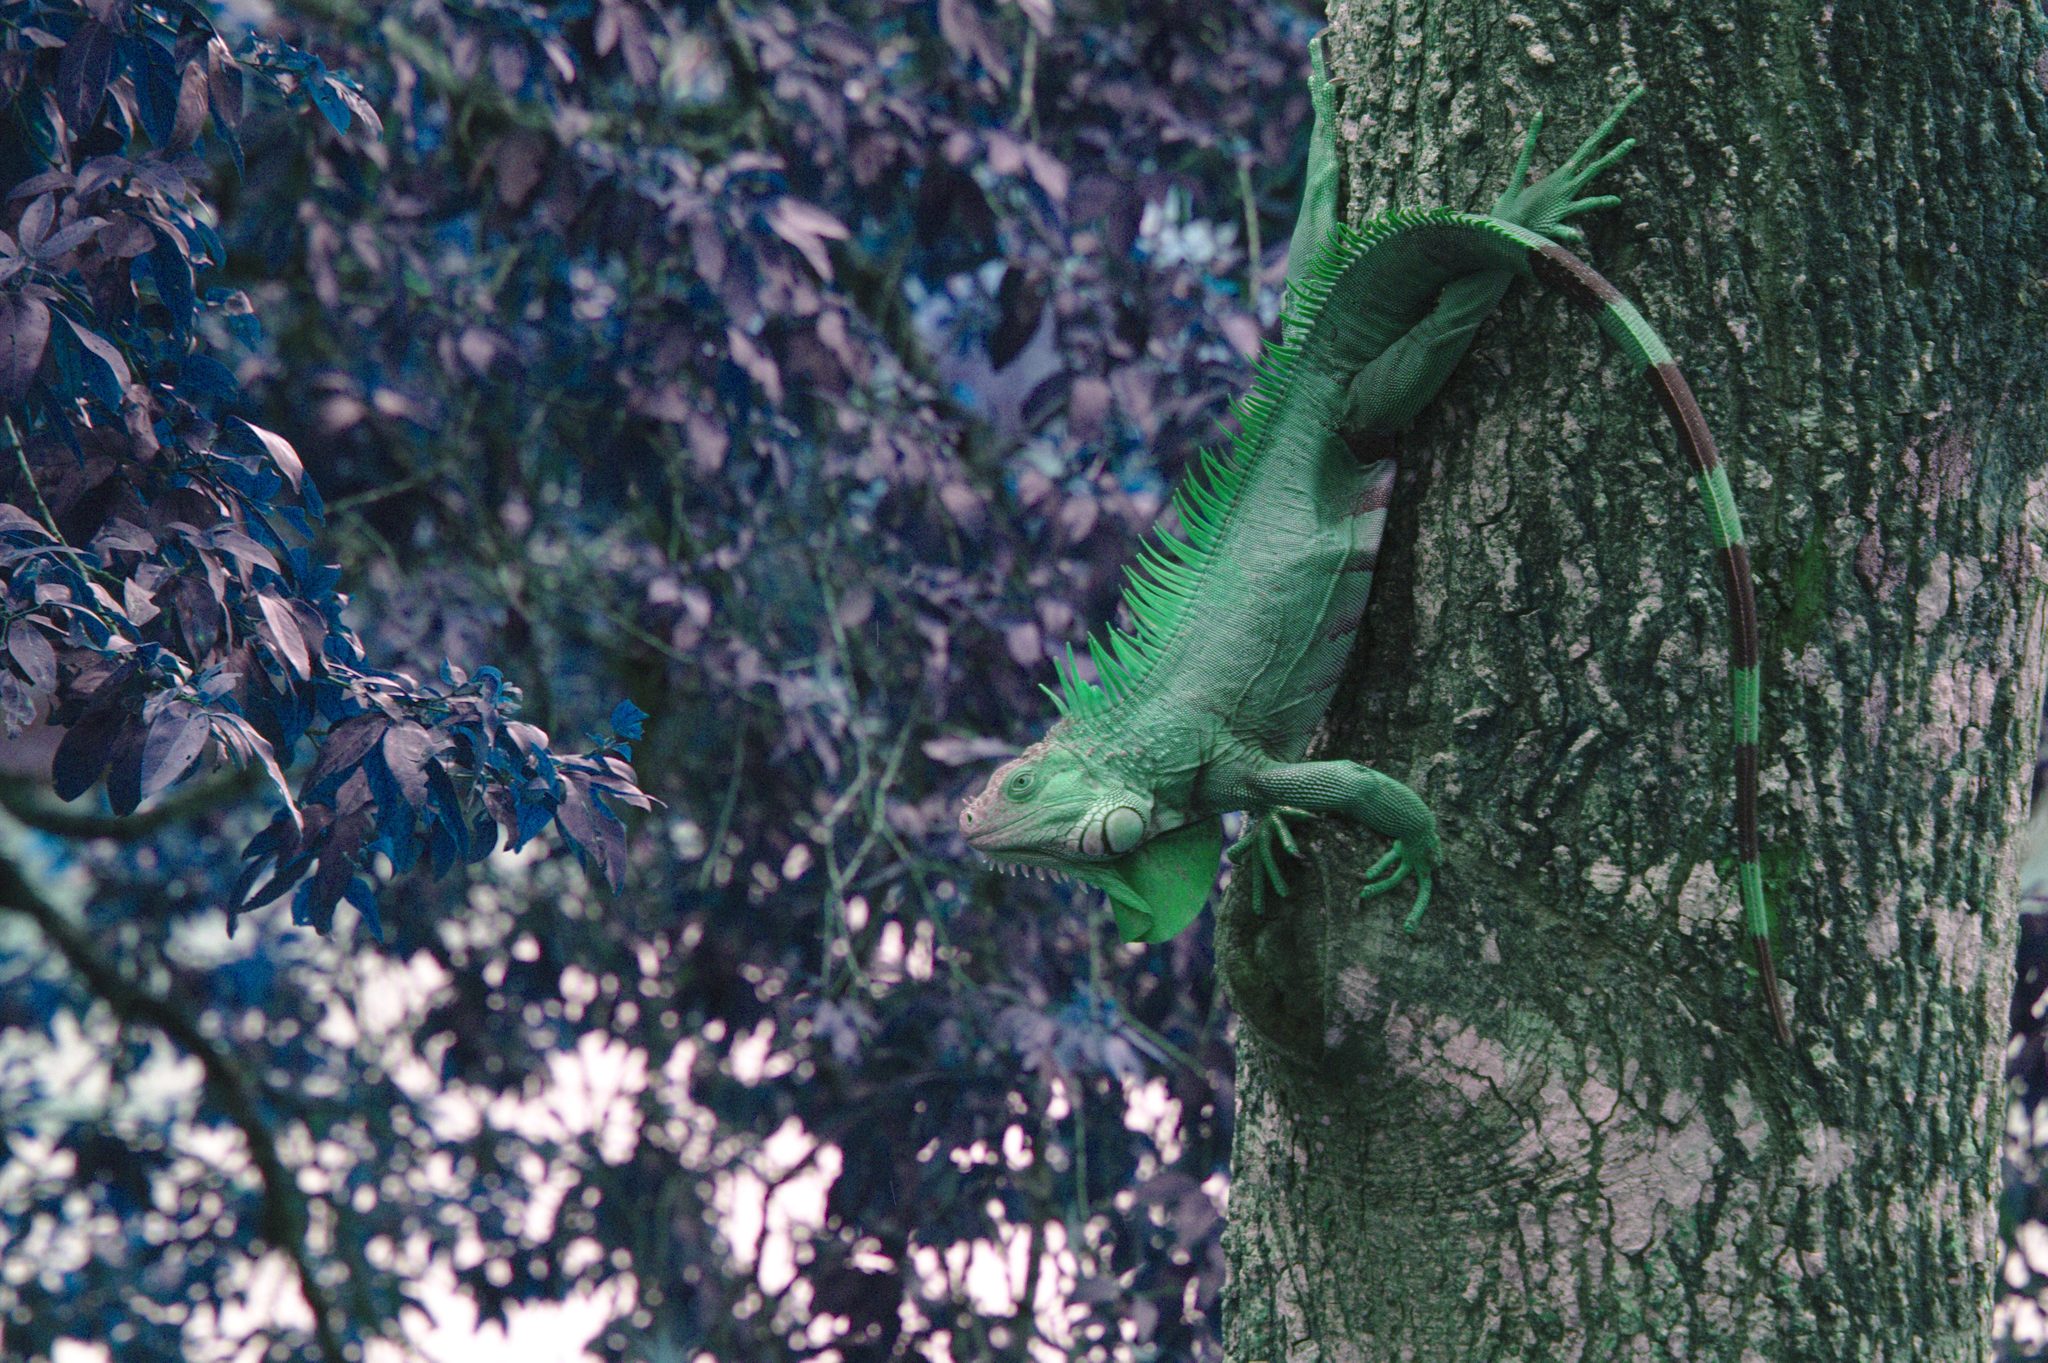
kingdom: Animalia
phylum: Chordata
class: Squamata
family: Iguanidae
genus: Iguana
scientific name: Iguana iguana
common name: Green iguana
